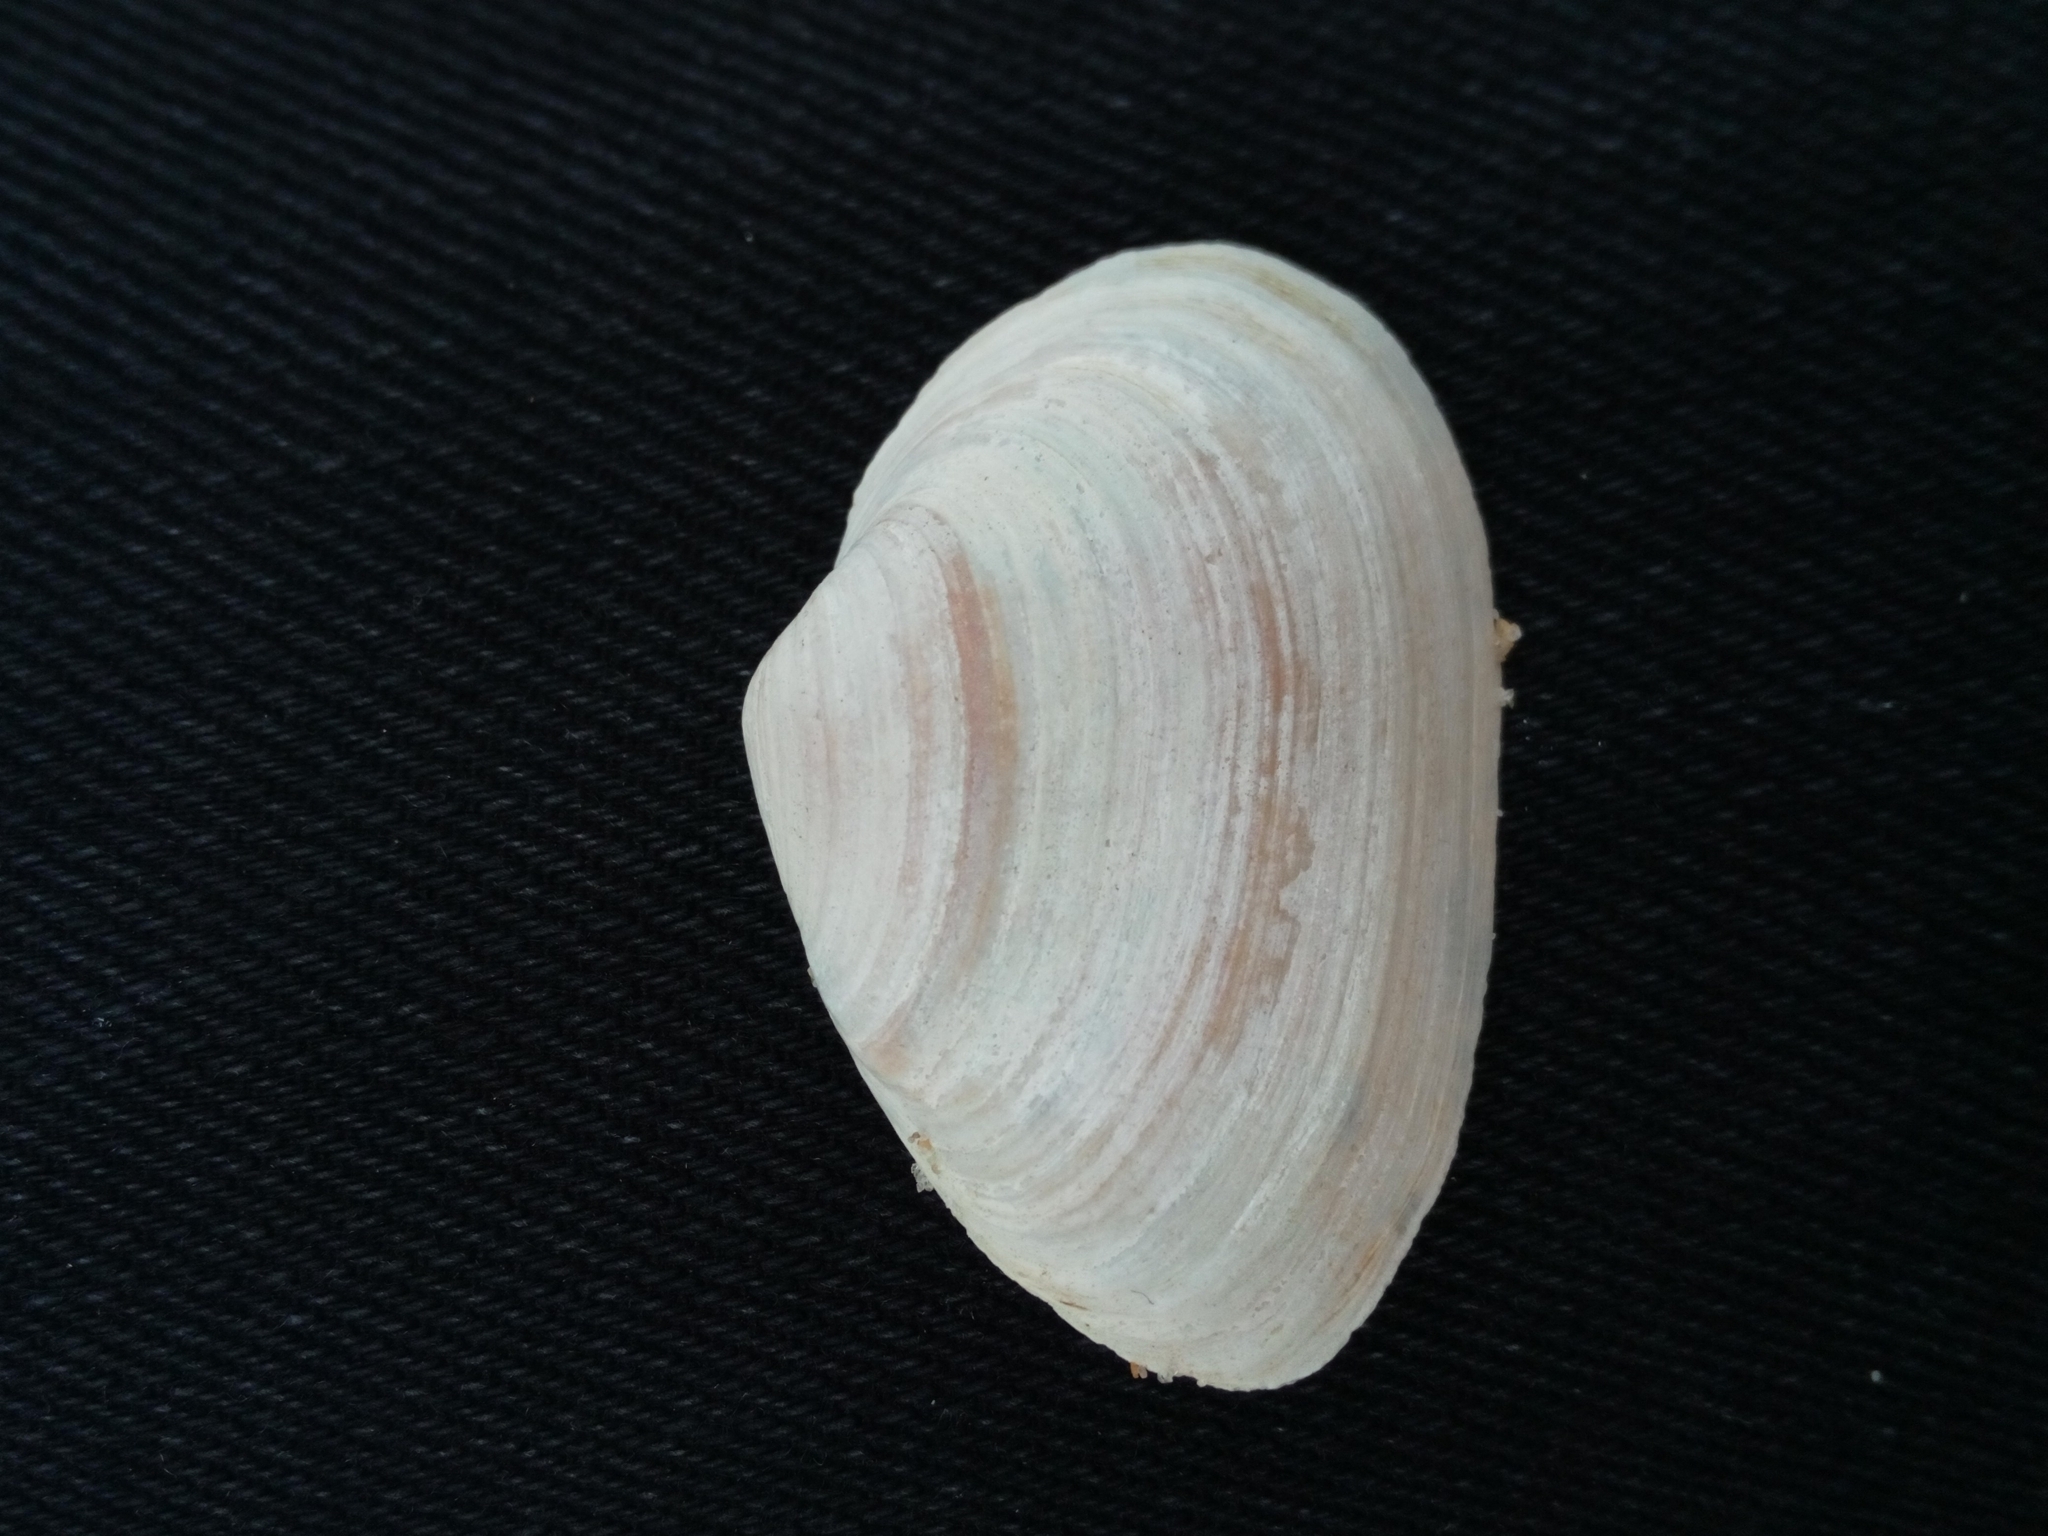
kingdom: Animalia
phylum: Mollusca
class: Bivalvia
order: Myida
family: Myidae
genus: Mya
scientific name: Mya arenaria
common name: Soft-shelled clam
